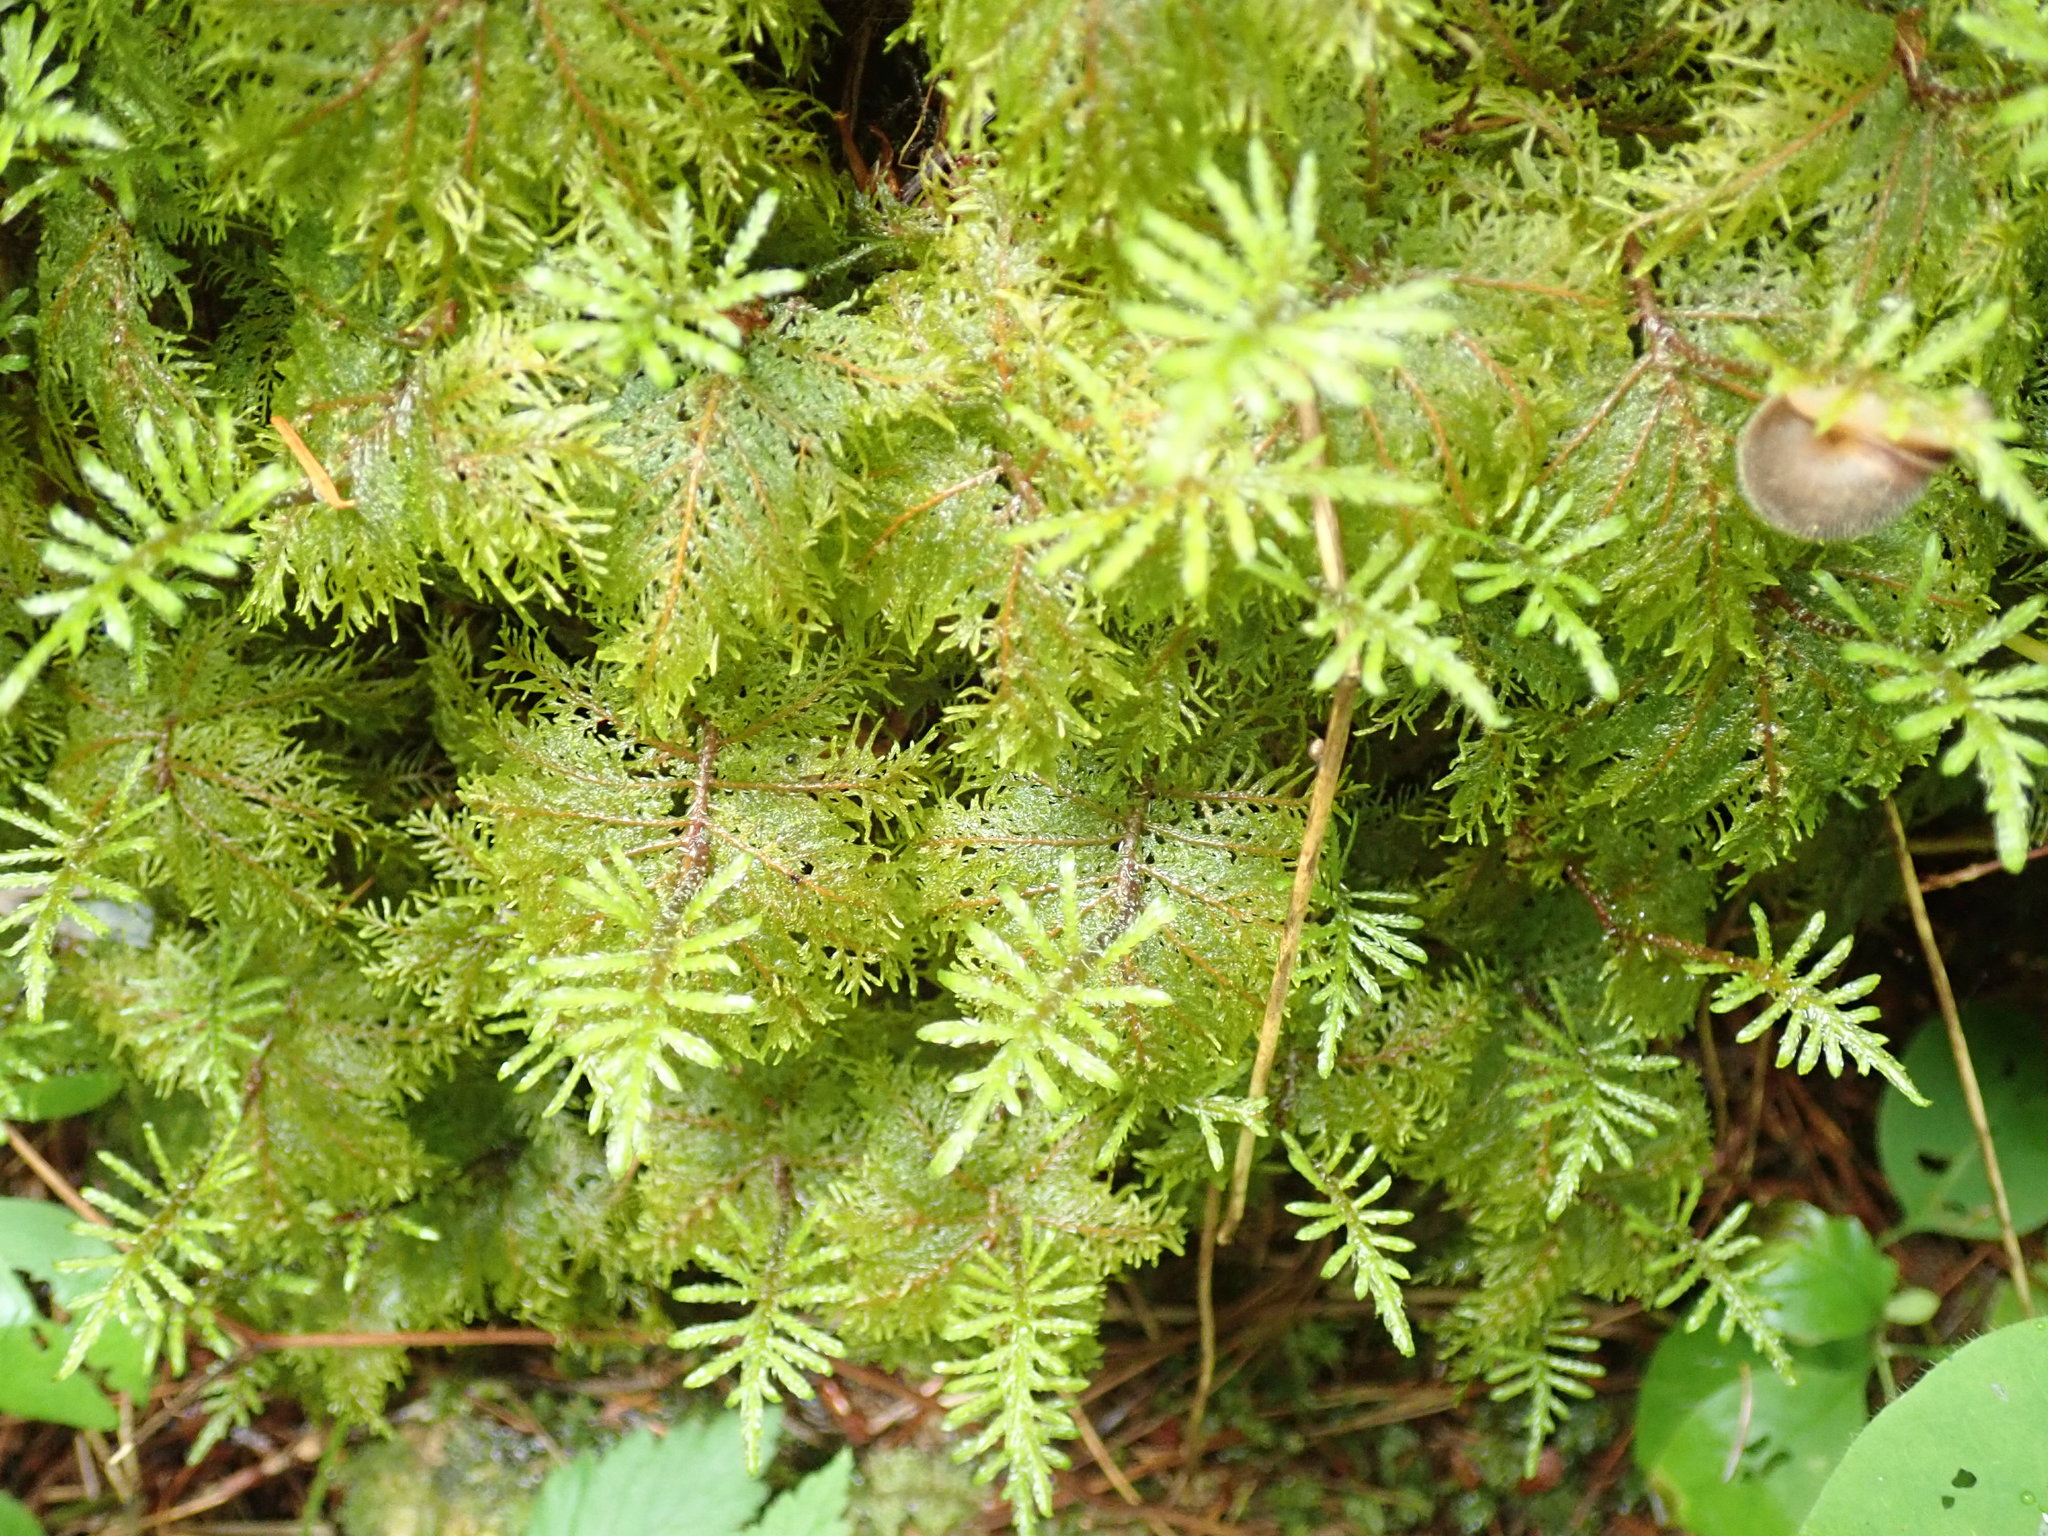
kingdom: Plantae
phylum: Bryophyta
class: Bryopsida
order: Hypnales
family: Hylocomiaceae
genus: Hylocomium
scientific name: Hylocomium splendens
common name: Stairstep moss
